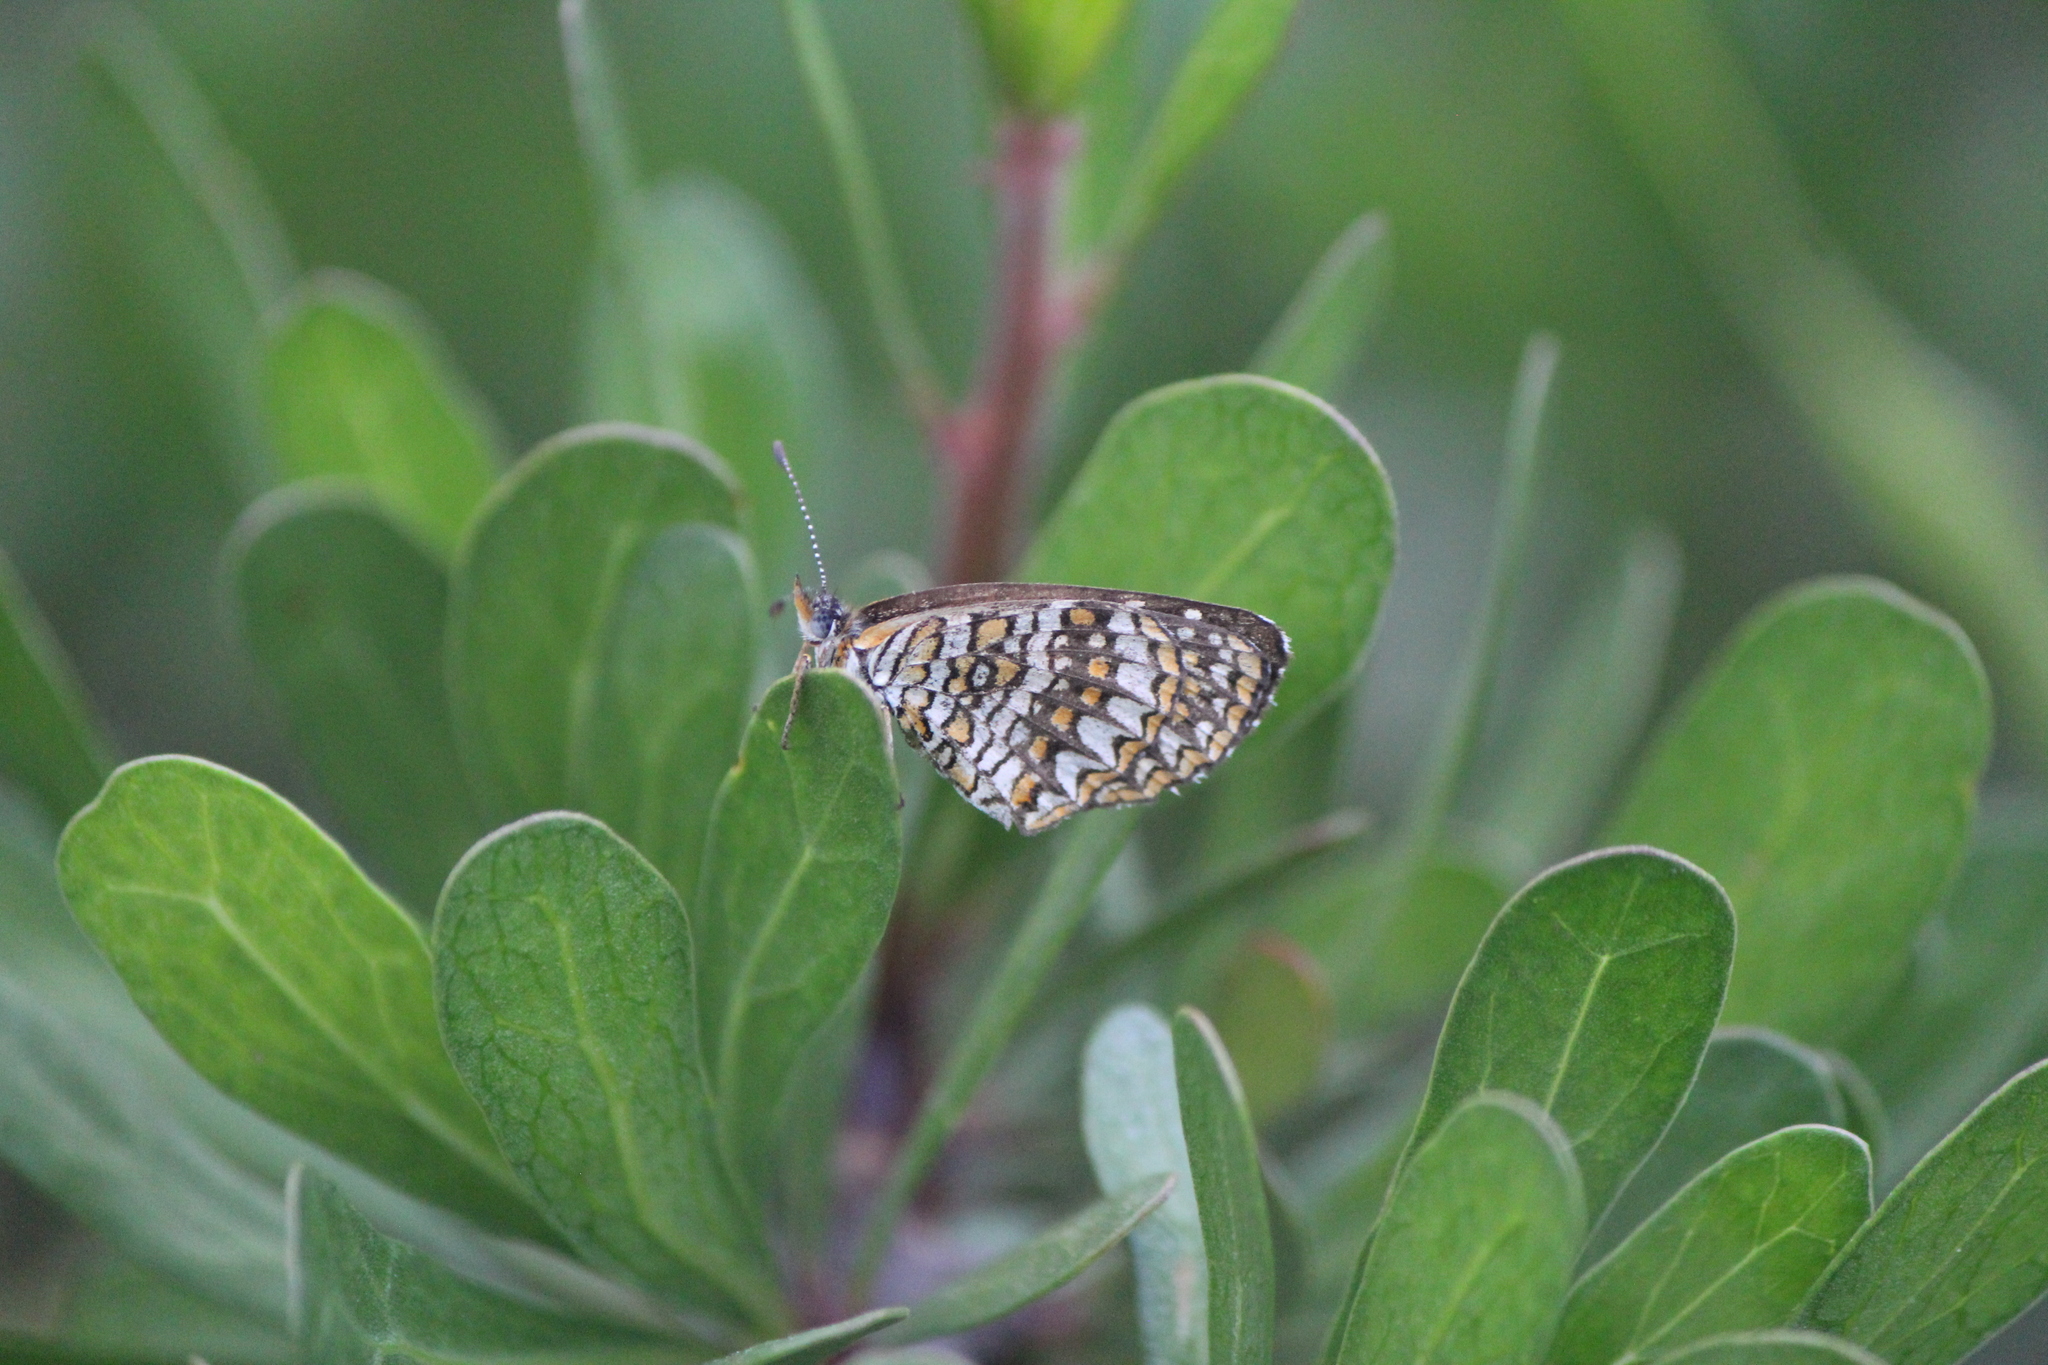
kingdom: Animalia
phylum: Arthropoda
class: Insecta
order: Lepidoptera
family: Nymphalidae
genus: Texola
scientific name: Texola elada
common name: Elada checkerspot
